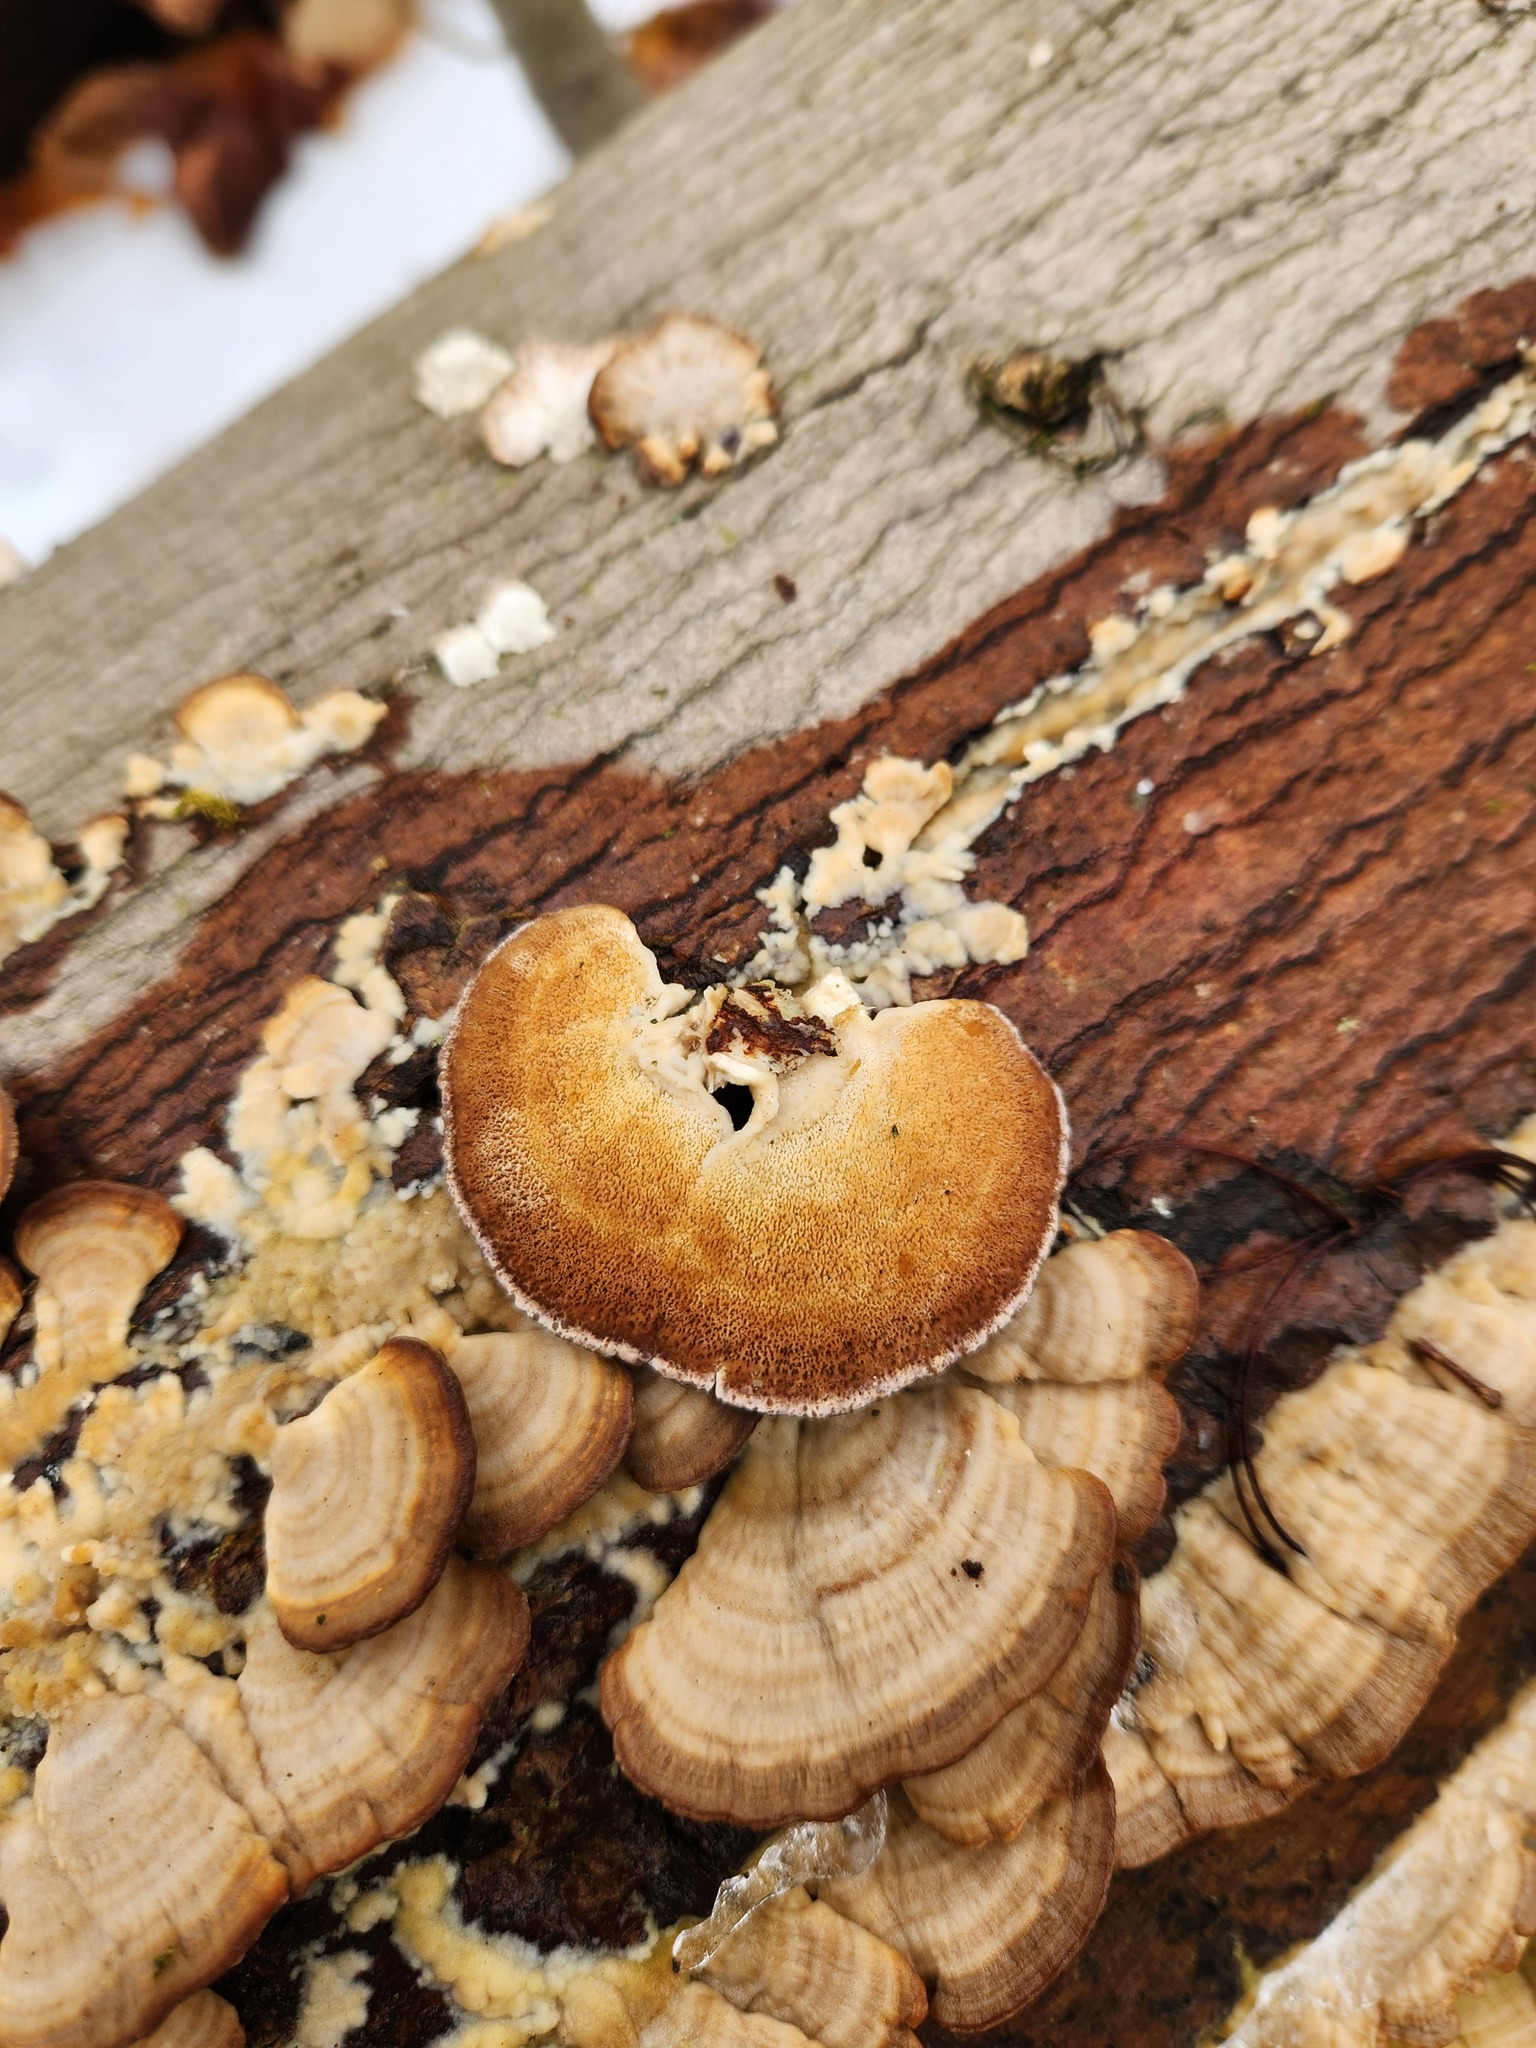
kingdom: Fungi
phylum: Basidiomycota
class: Agaricomycetes
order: Hymenochaetales
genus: Trichaptum
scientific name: Trichaptum biforme
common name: Violet-toothed polypore
